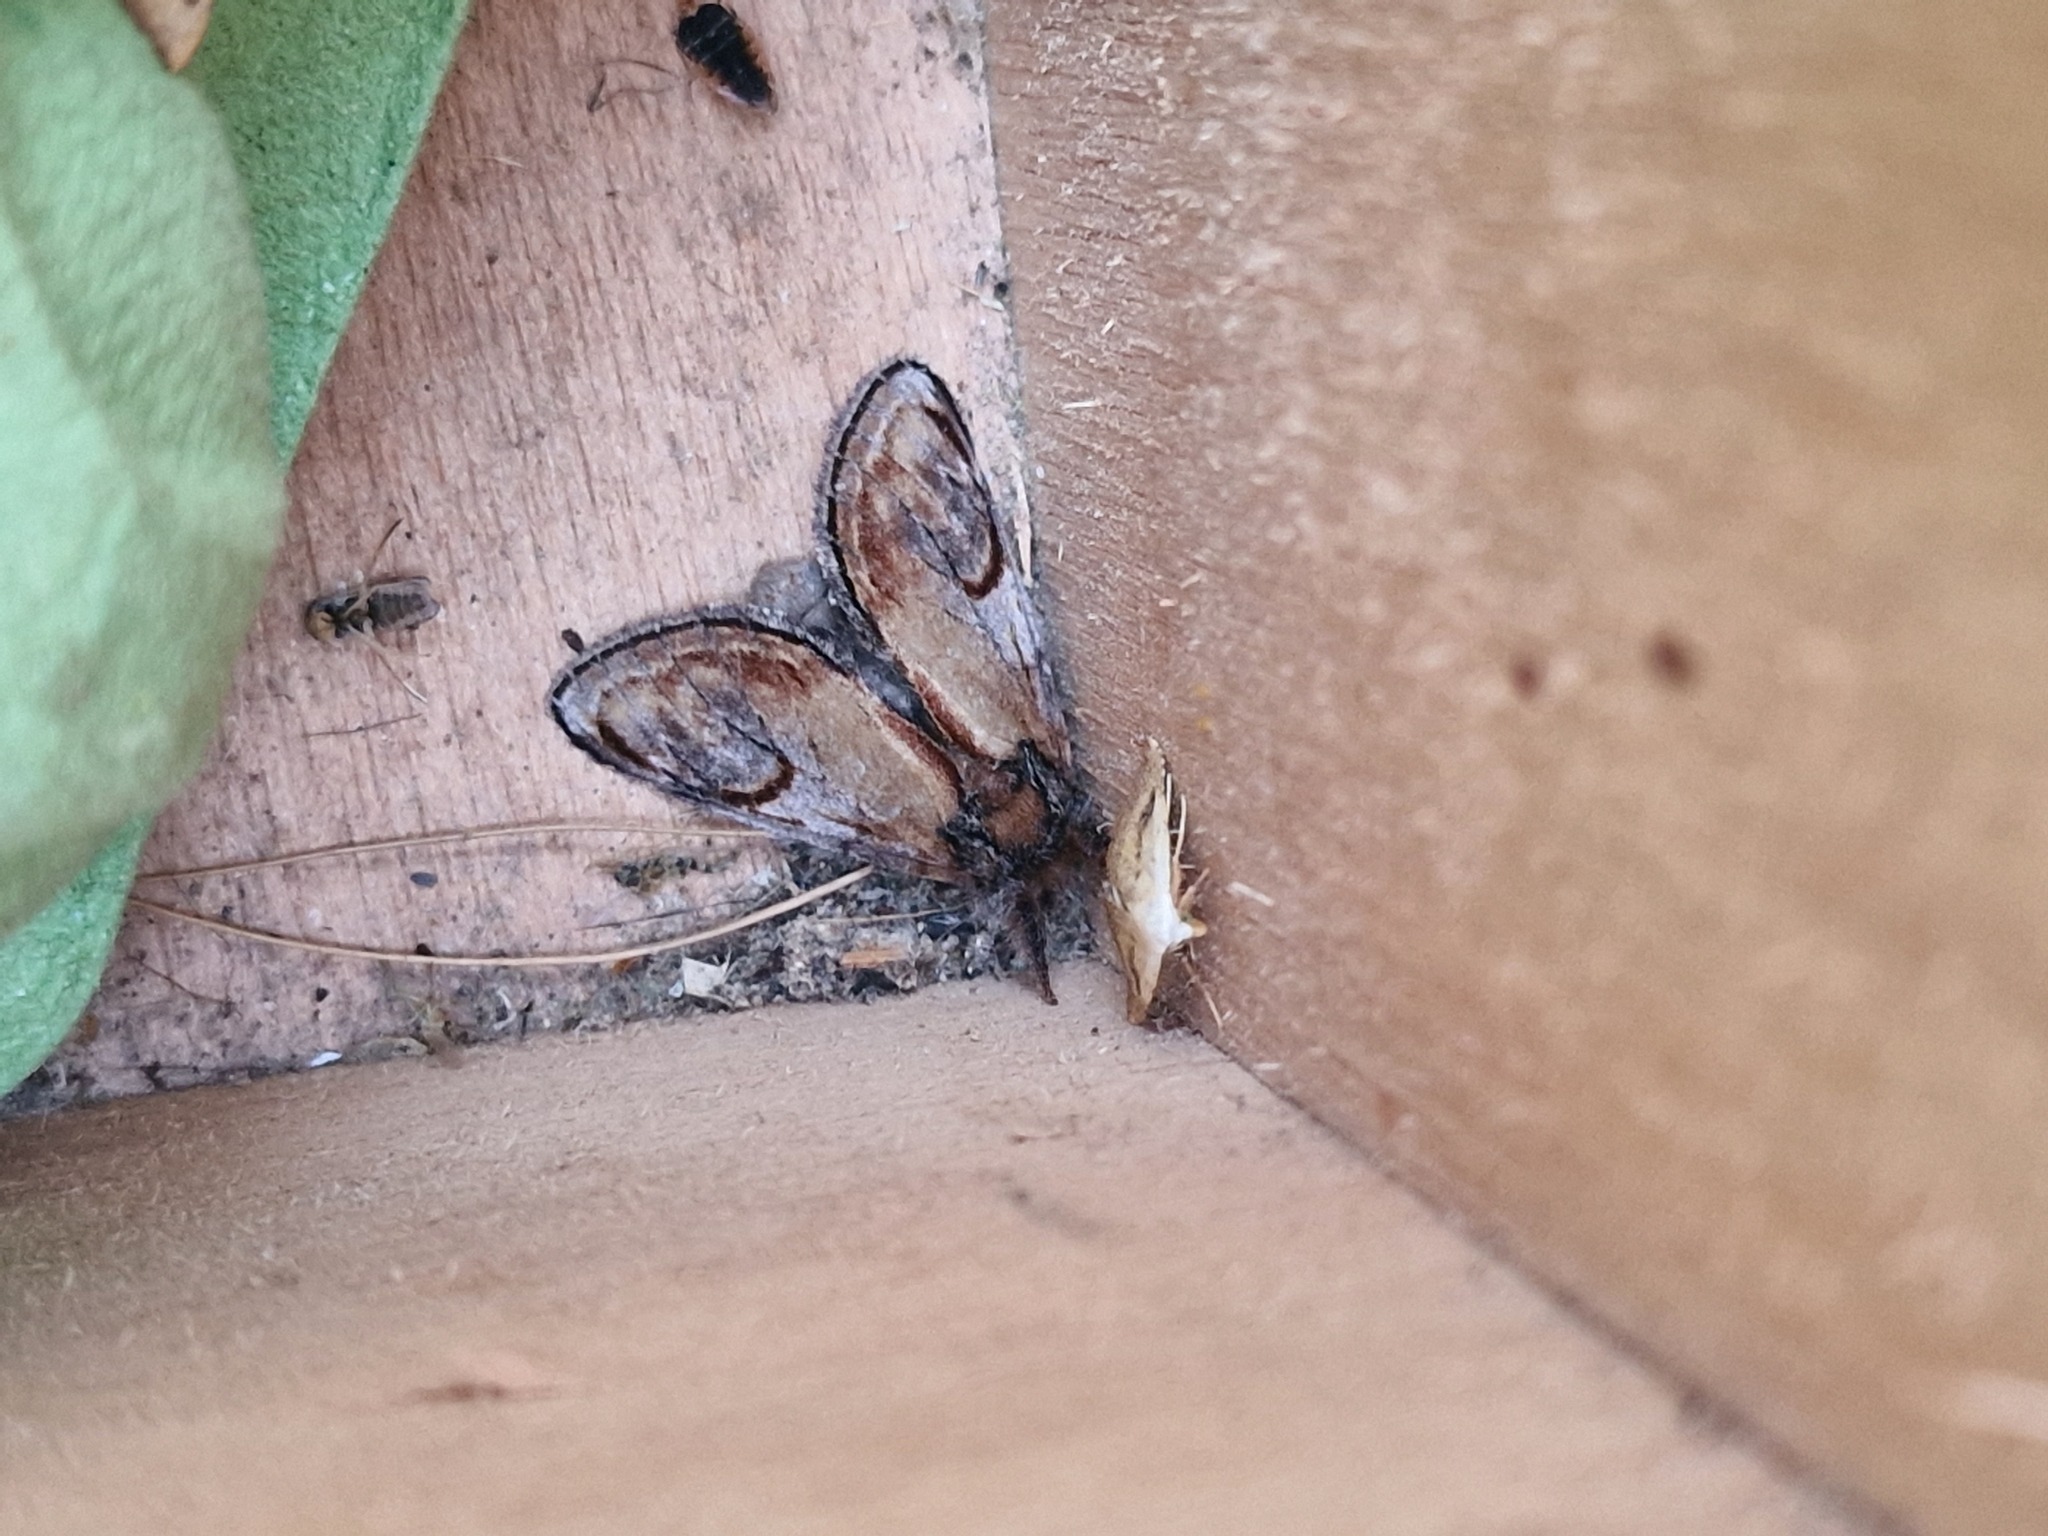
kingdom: Animalia
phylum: Arthropoda
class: Insecta
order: Lepidoptera
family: Notodontidae
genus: Notodonta
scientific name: Notodonta ziczac
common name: Pebble prominent
